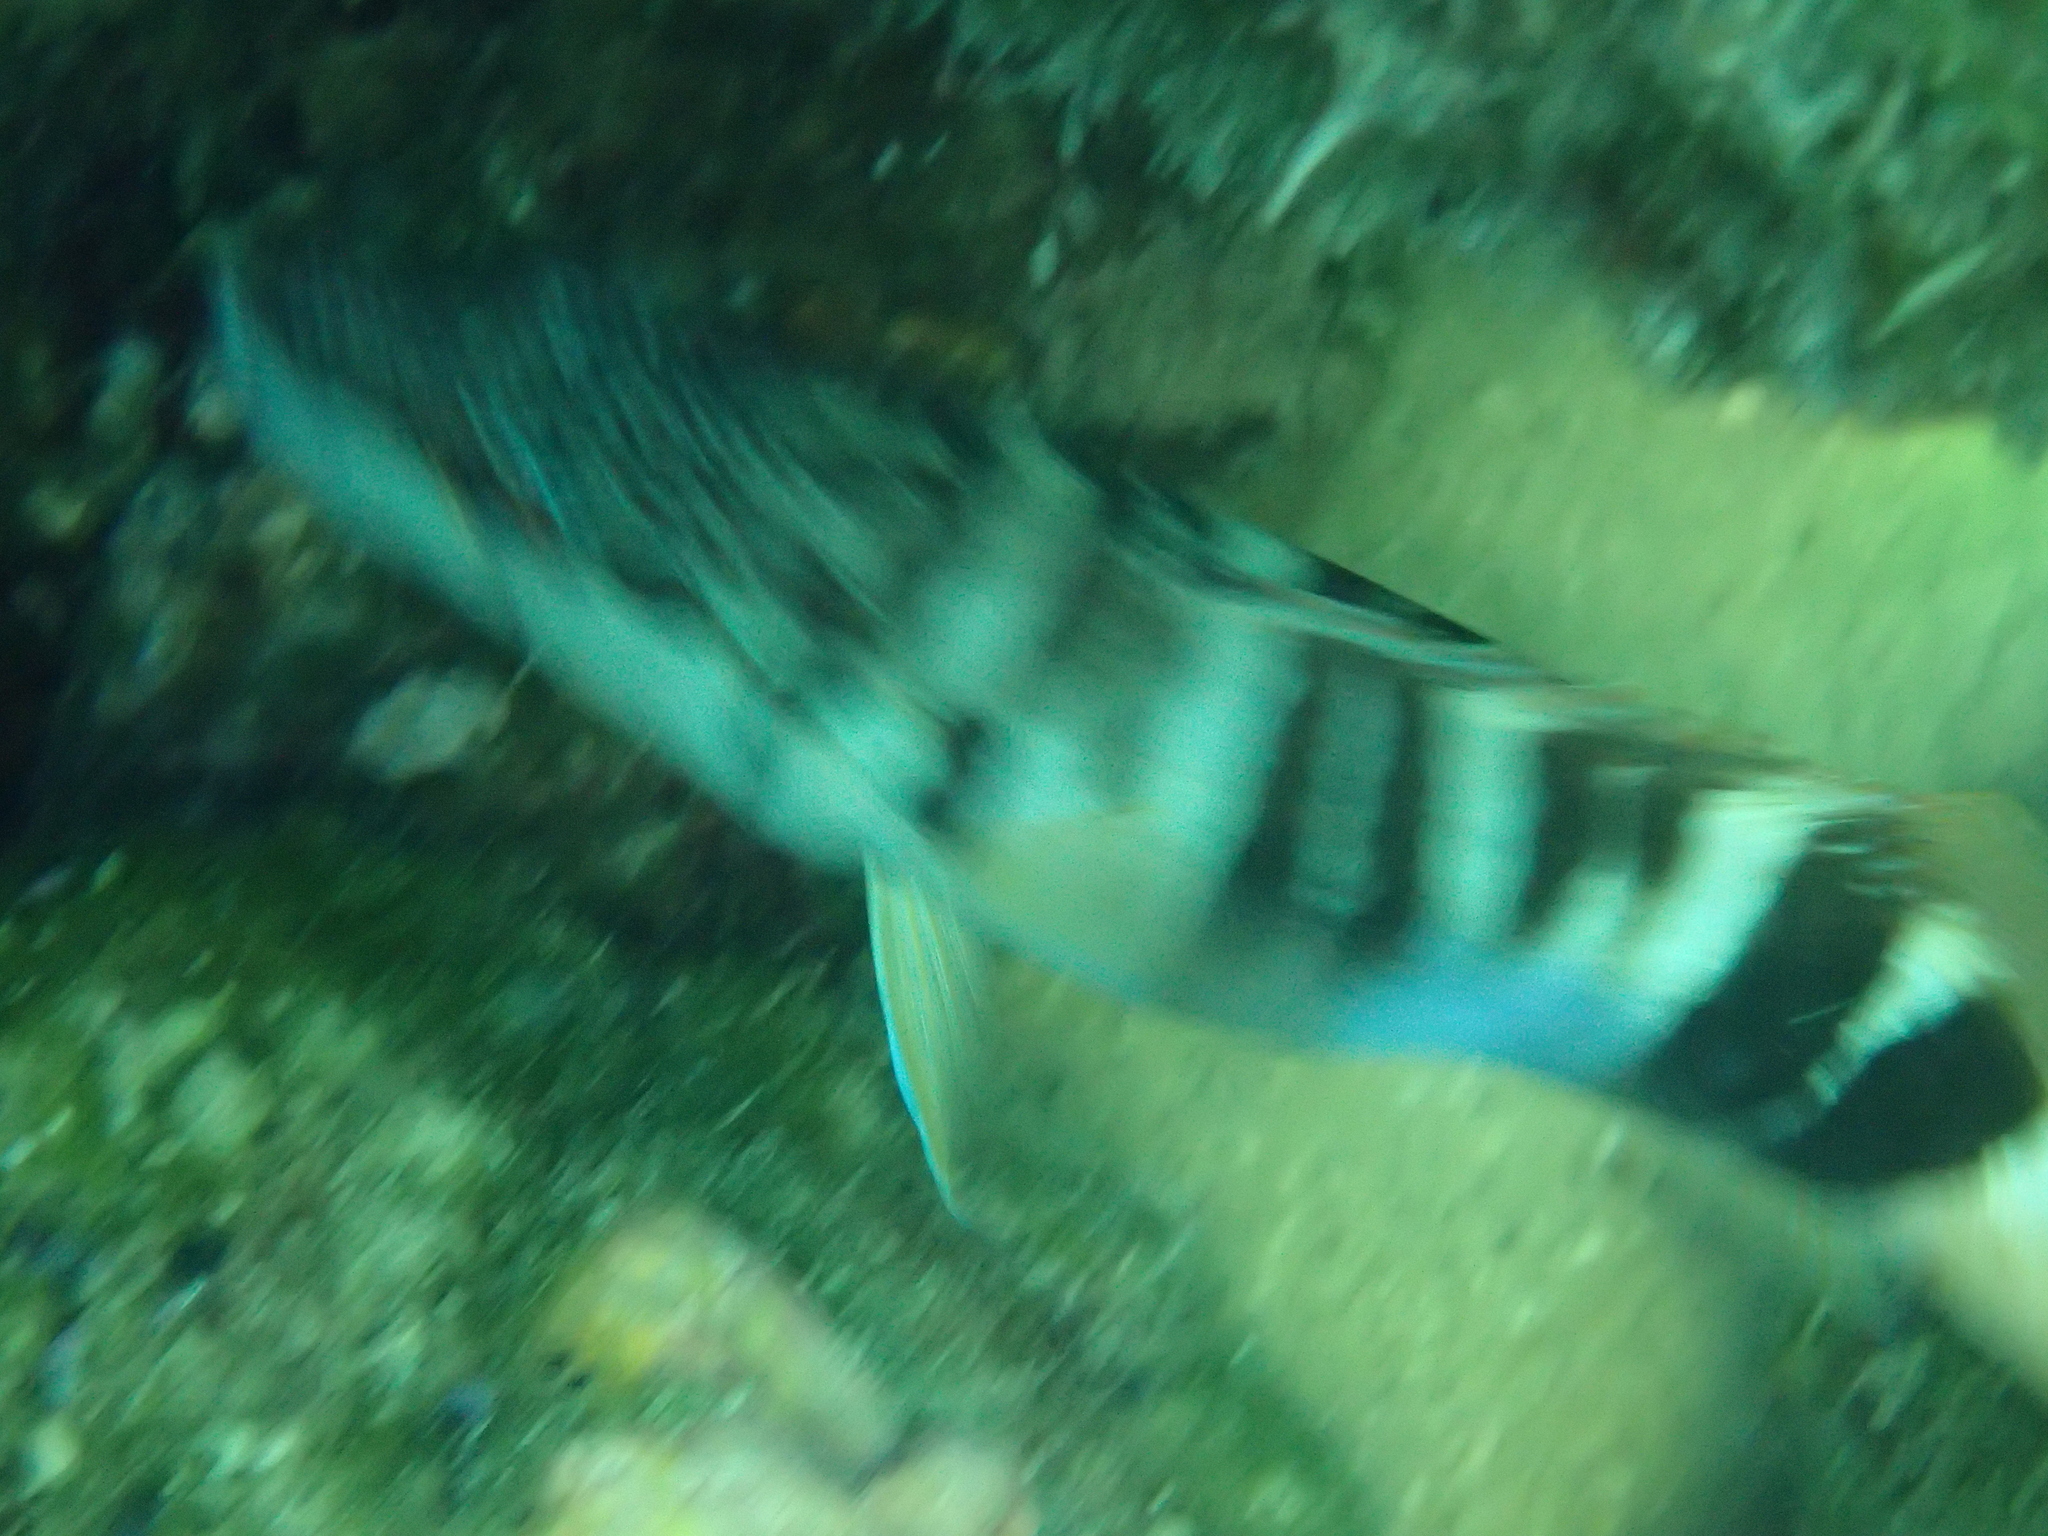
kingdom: Animalia
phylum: Chordata
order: Perciformes
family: Serranidae
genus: Serranus
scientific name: Serranus scriba
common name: Painted comber
